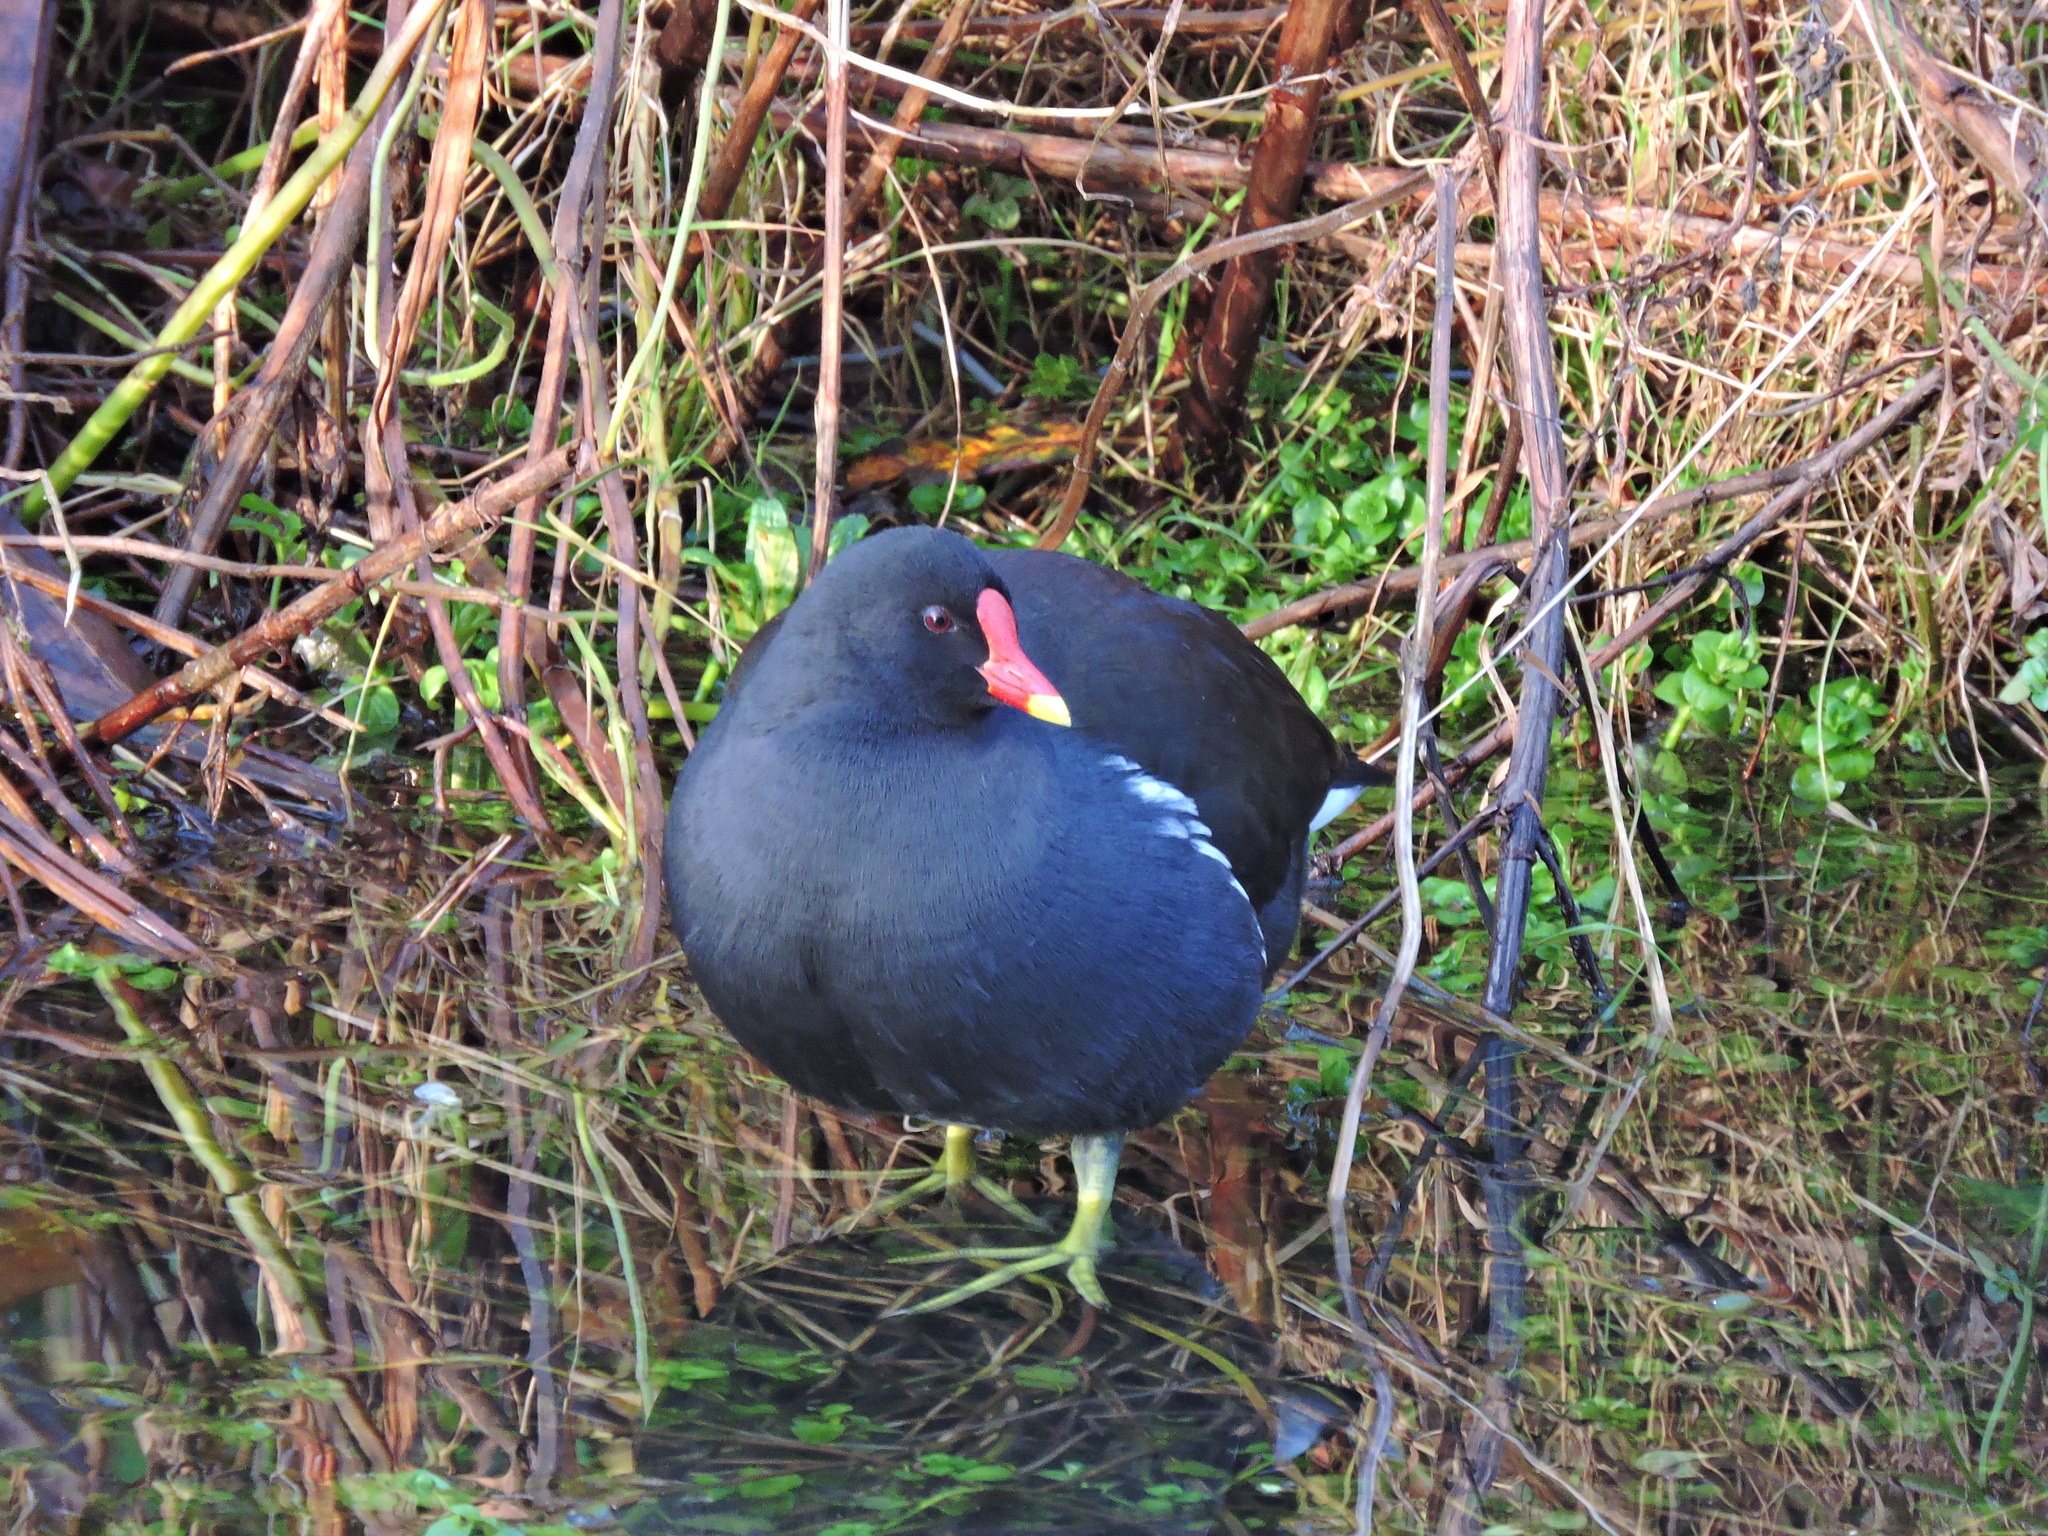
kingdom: Animalia
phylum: Chordata
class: Aves
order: Gruiformes
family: Rallidae
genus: Gallinula
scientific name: Gallinula chloropus
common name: Common moorhen
